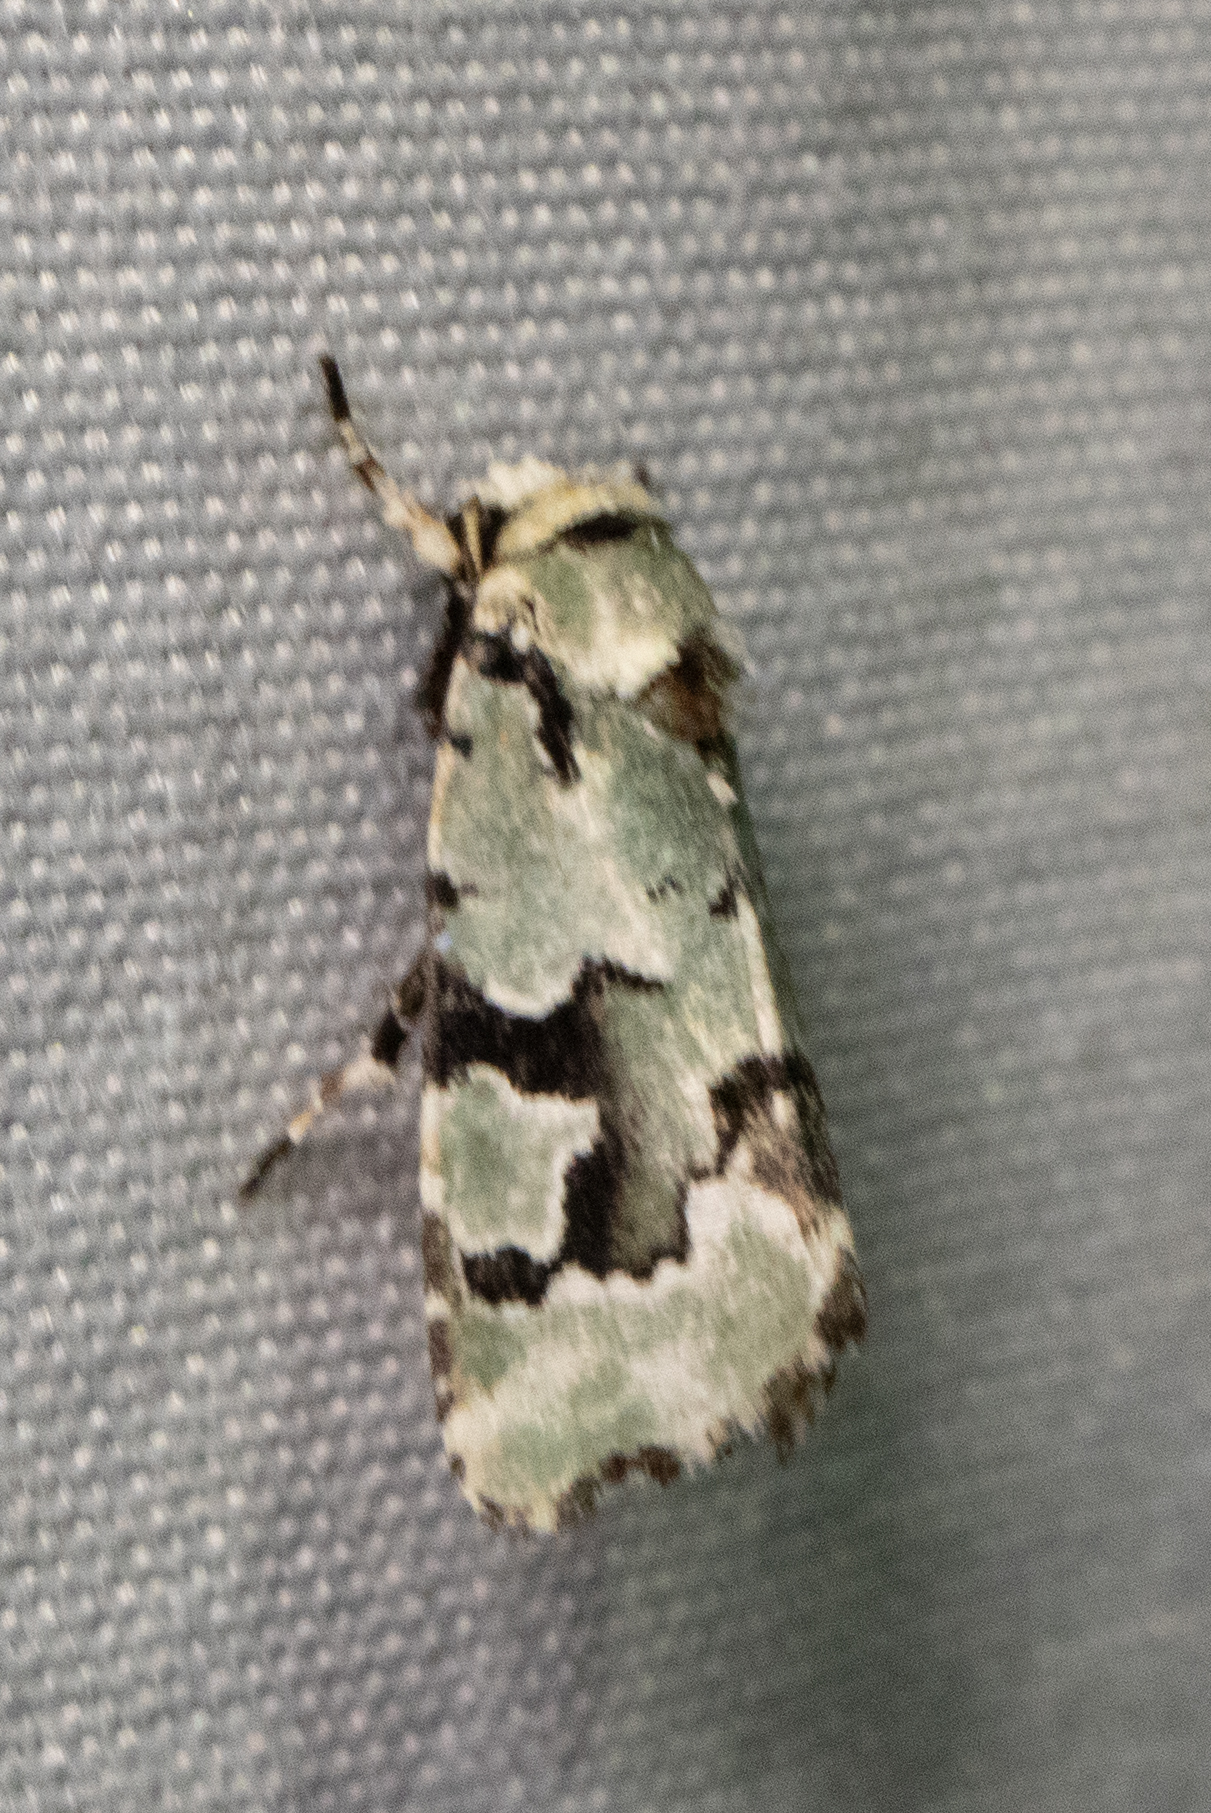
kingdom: Animalia
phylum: Arthropoda
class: Insecta
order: Lepidoptera
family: Noctuidae
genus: Emarginea
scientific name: Emarginea percara
